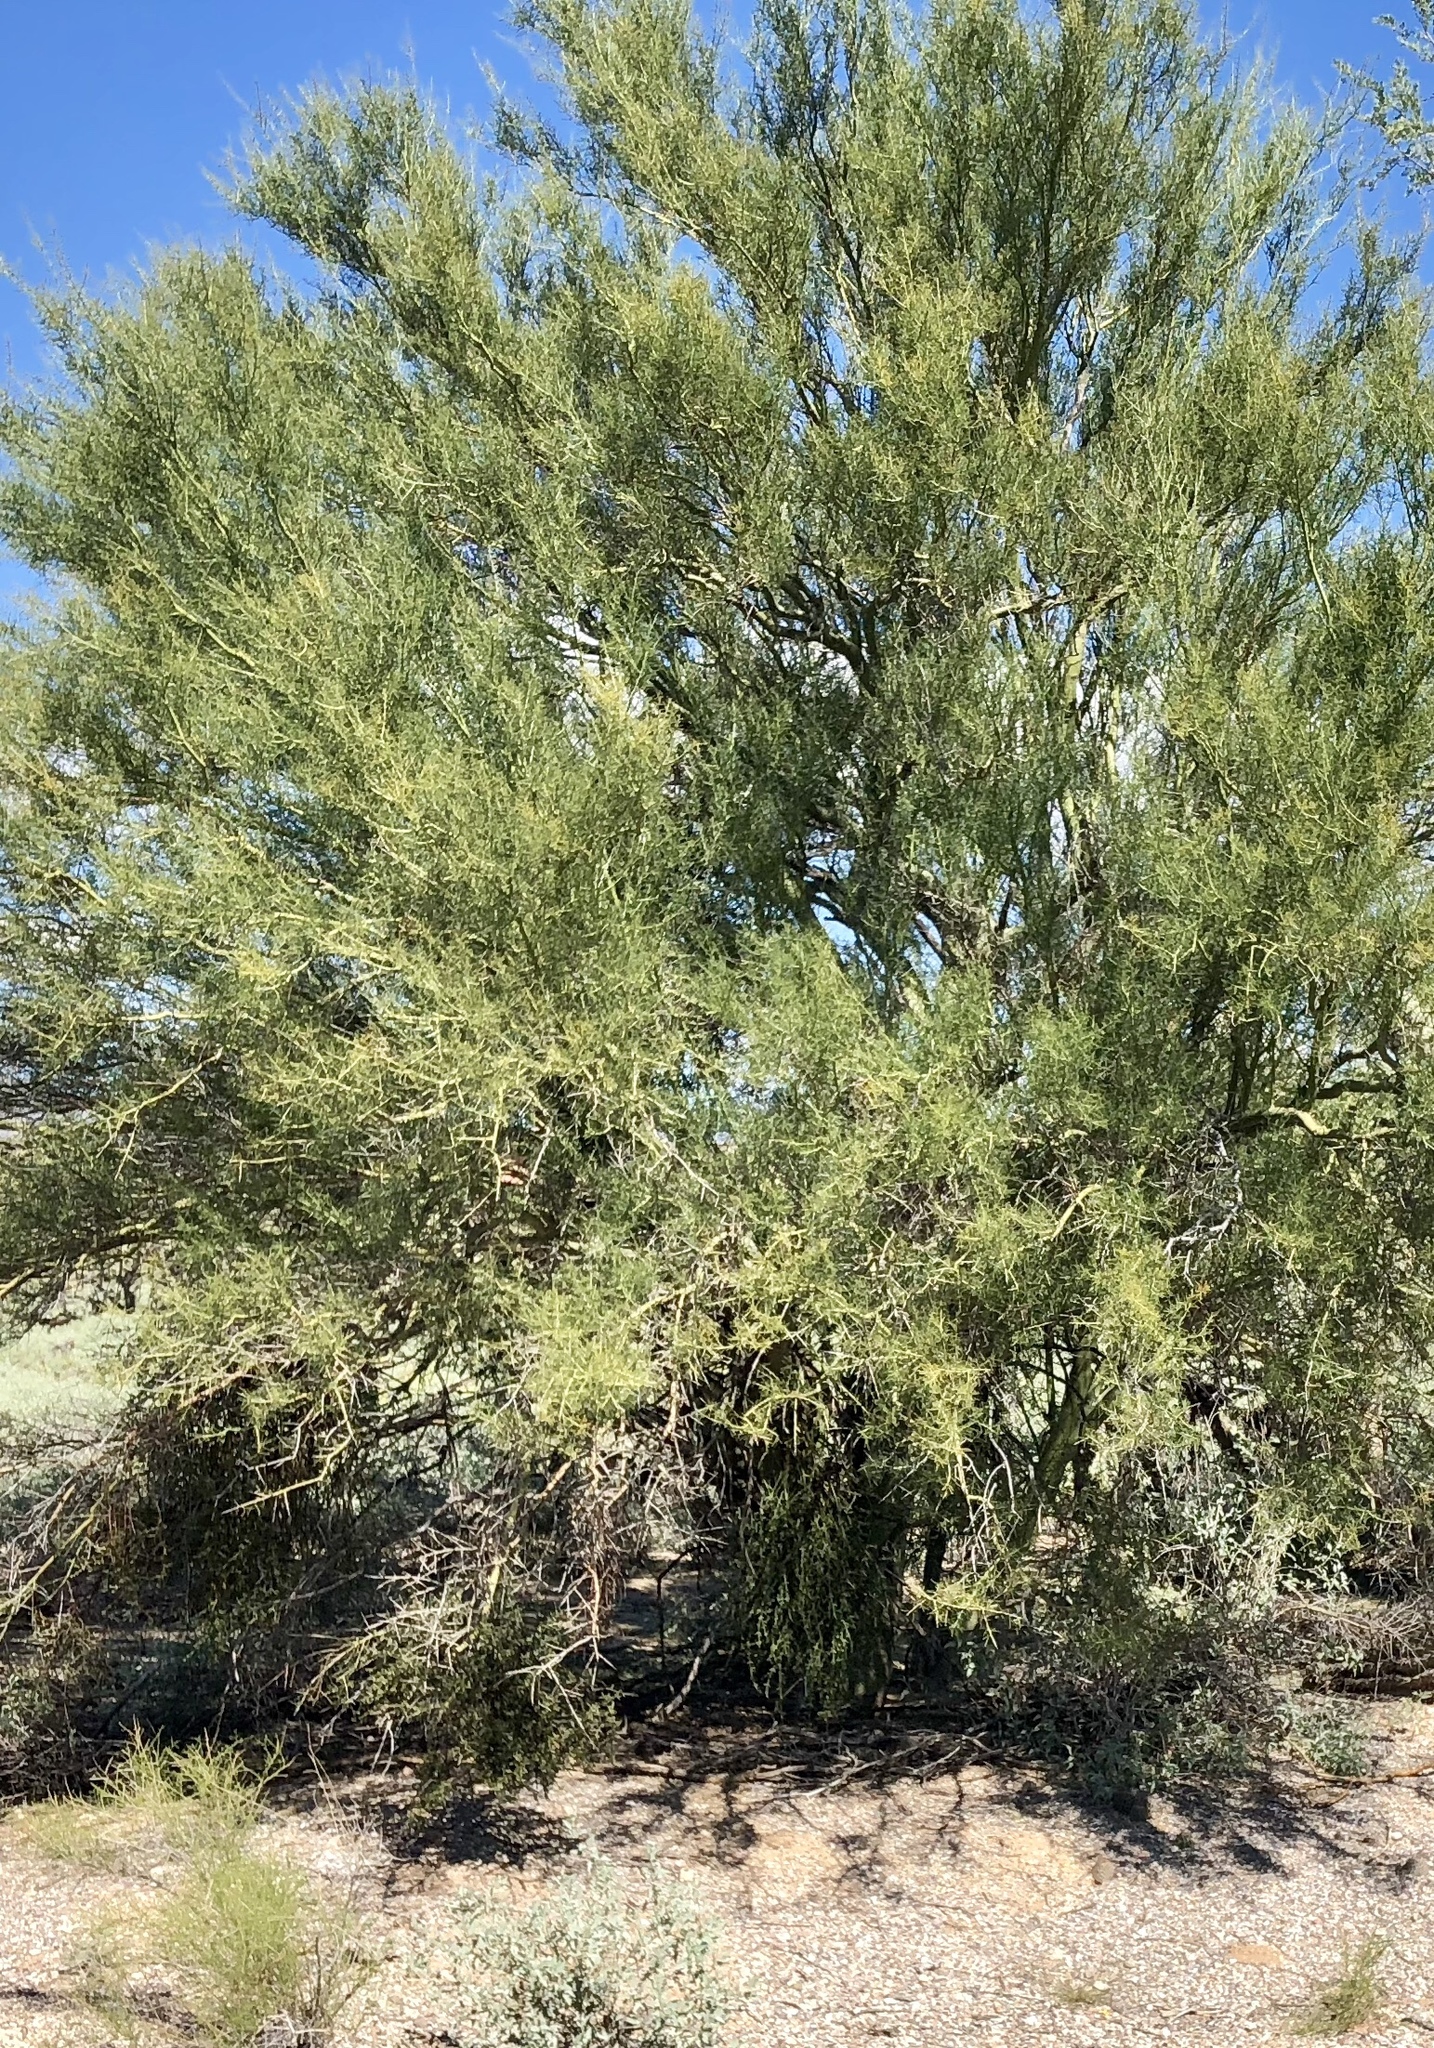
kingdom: Plantae
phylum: Tracheophyta
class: Magnoliopsida
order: Fabales
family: Fabaceae
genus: Parkinsonia
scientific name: Parkinsonia microphylla
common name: Yellow paloverde
